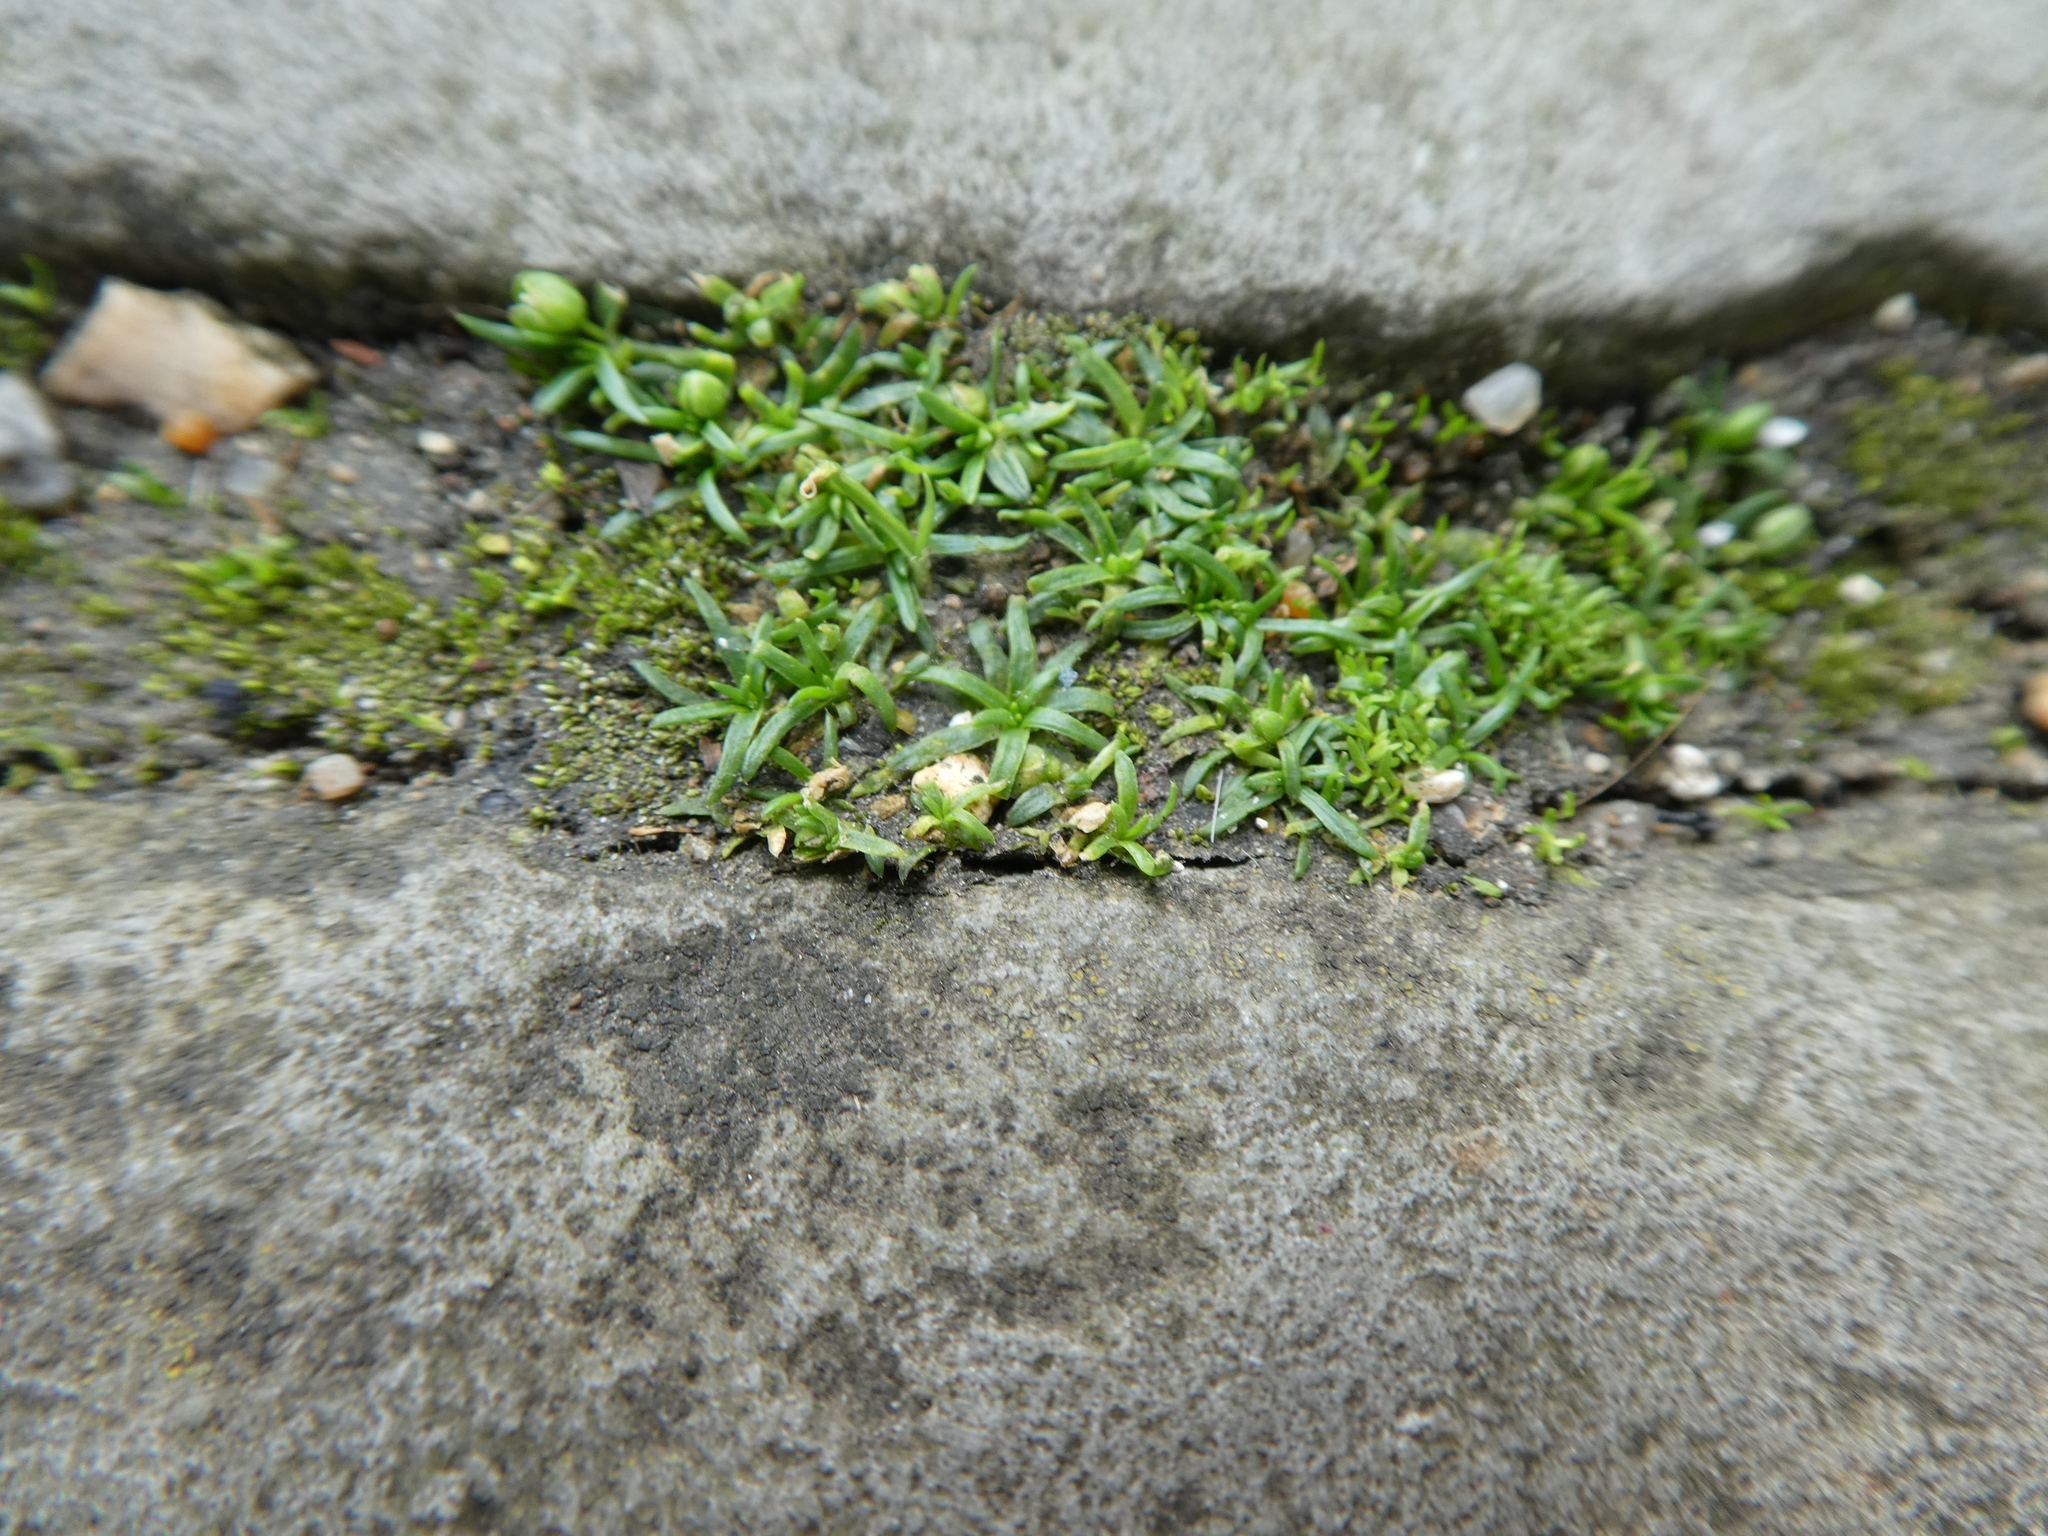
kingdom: Plantae
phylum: Tracheophyta
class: Magnoliopsida
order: Caryophyllales
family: Caryophyllaceae
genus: Sagina
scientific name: Sagina procumbens
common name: Procumbent pearlwort
